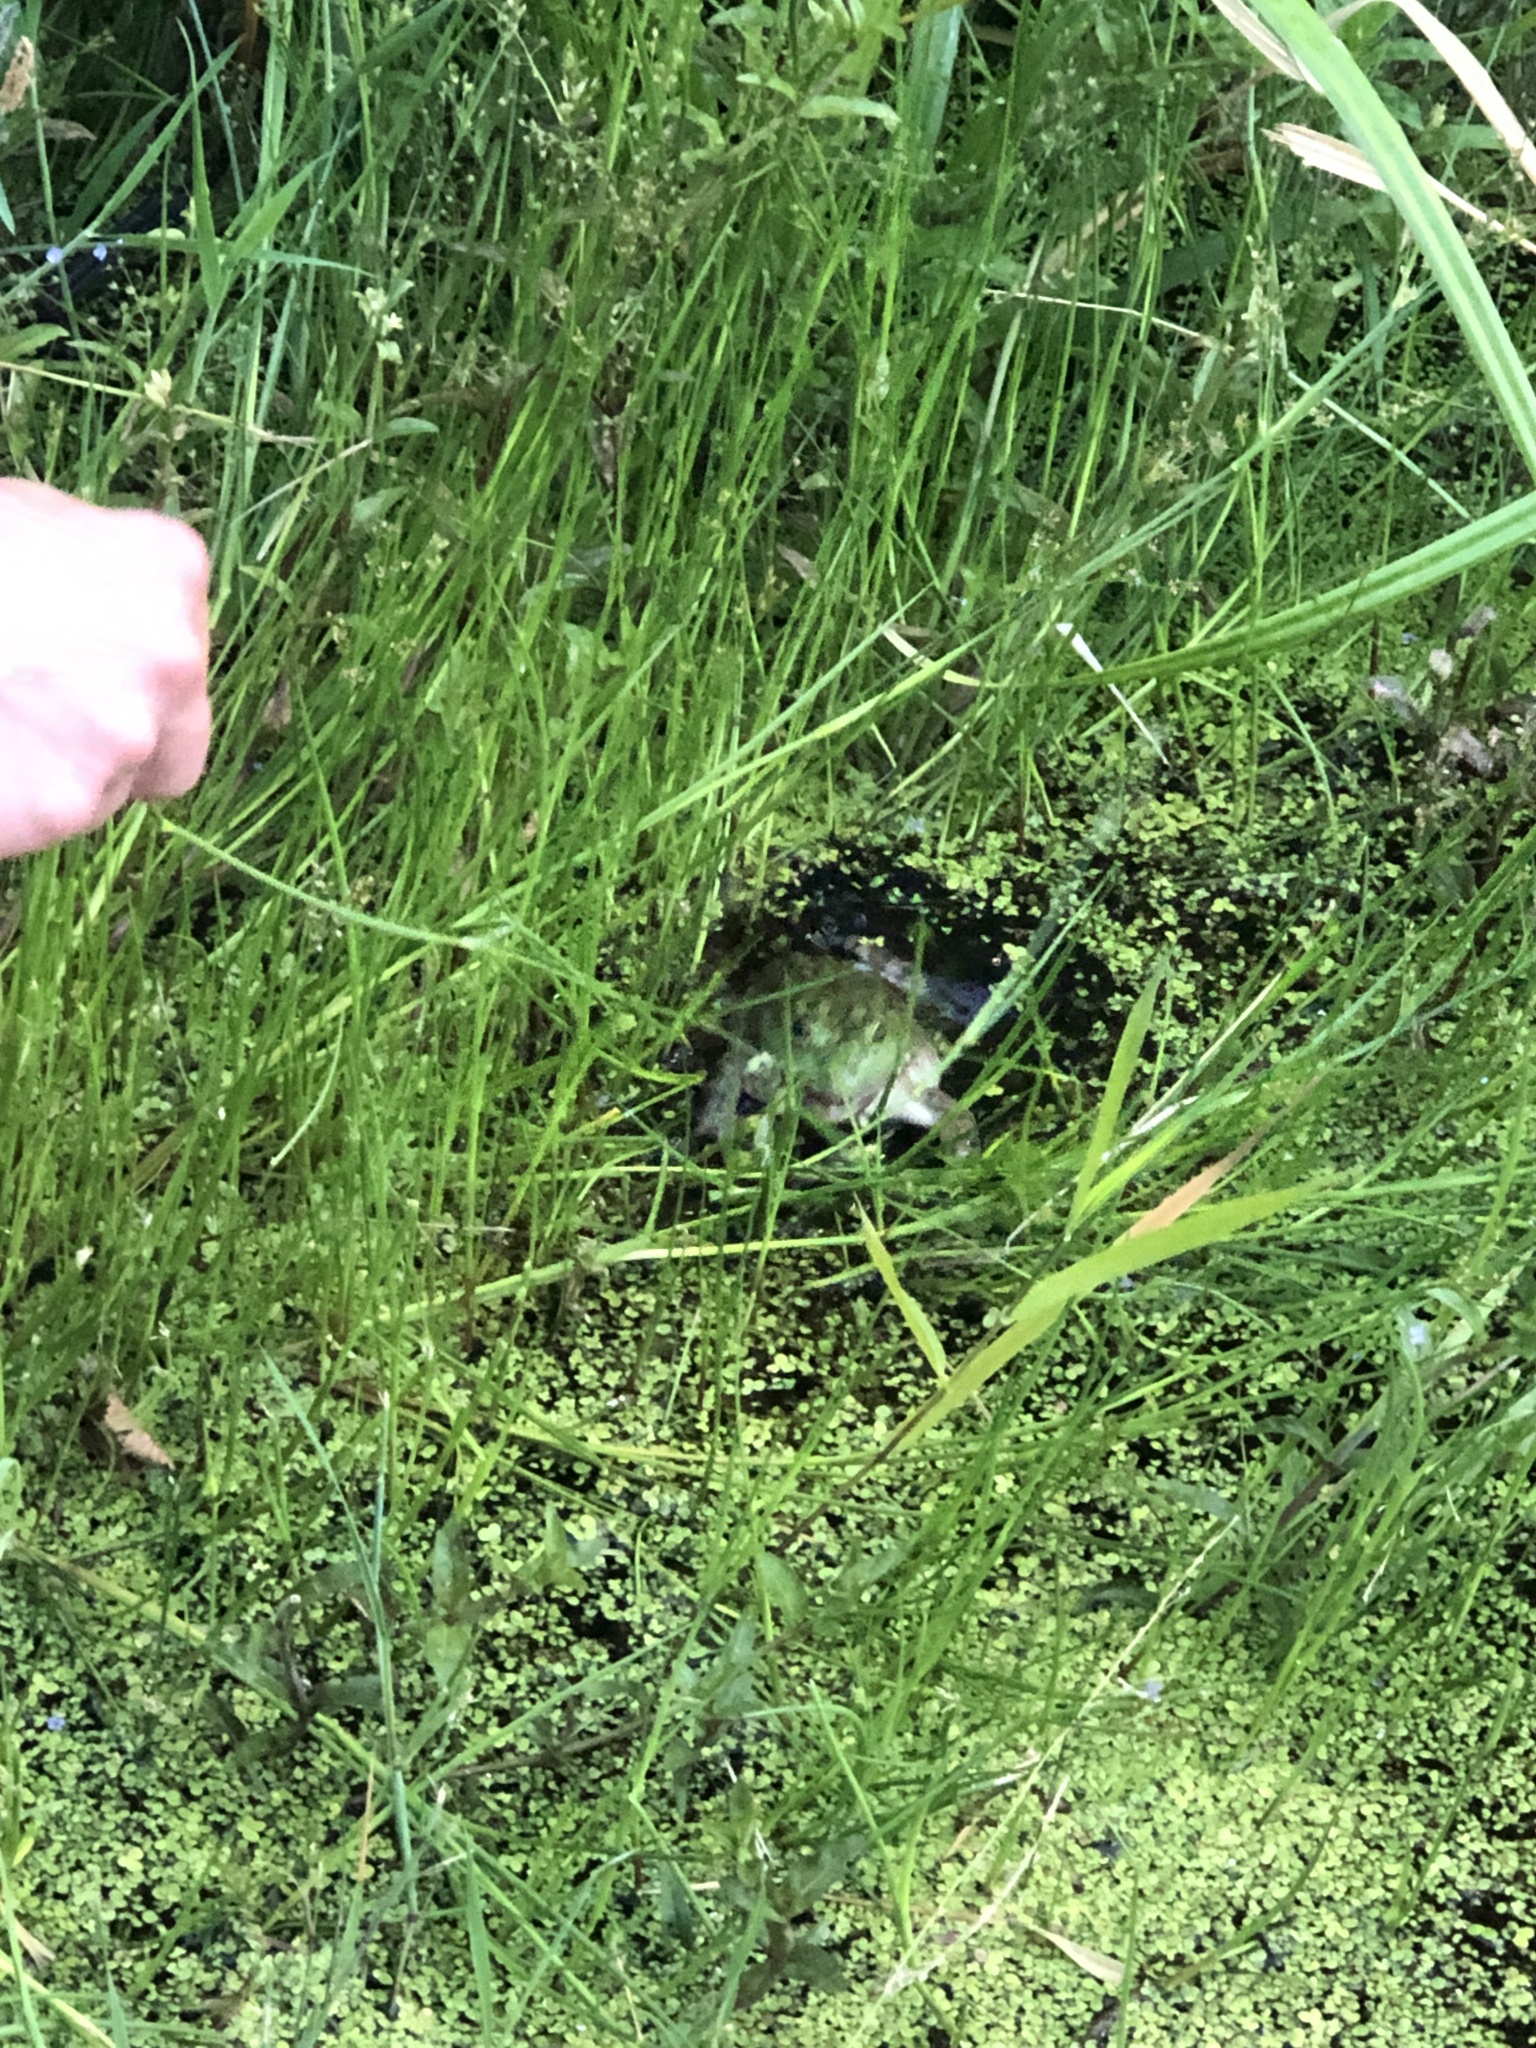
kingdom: Animalia
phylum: Chordata
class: Amphibia
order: Anura
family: Ranidae
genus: Lithobates
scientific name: Lithobates catesbeianus
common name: American bullfrog
